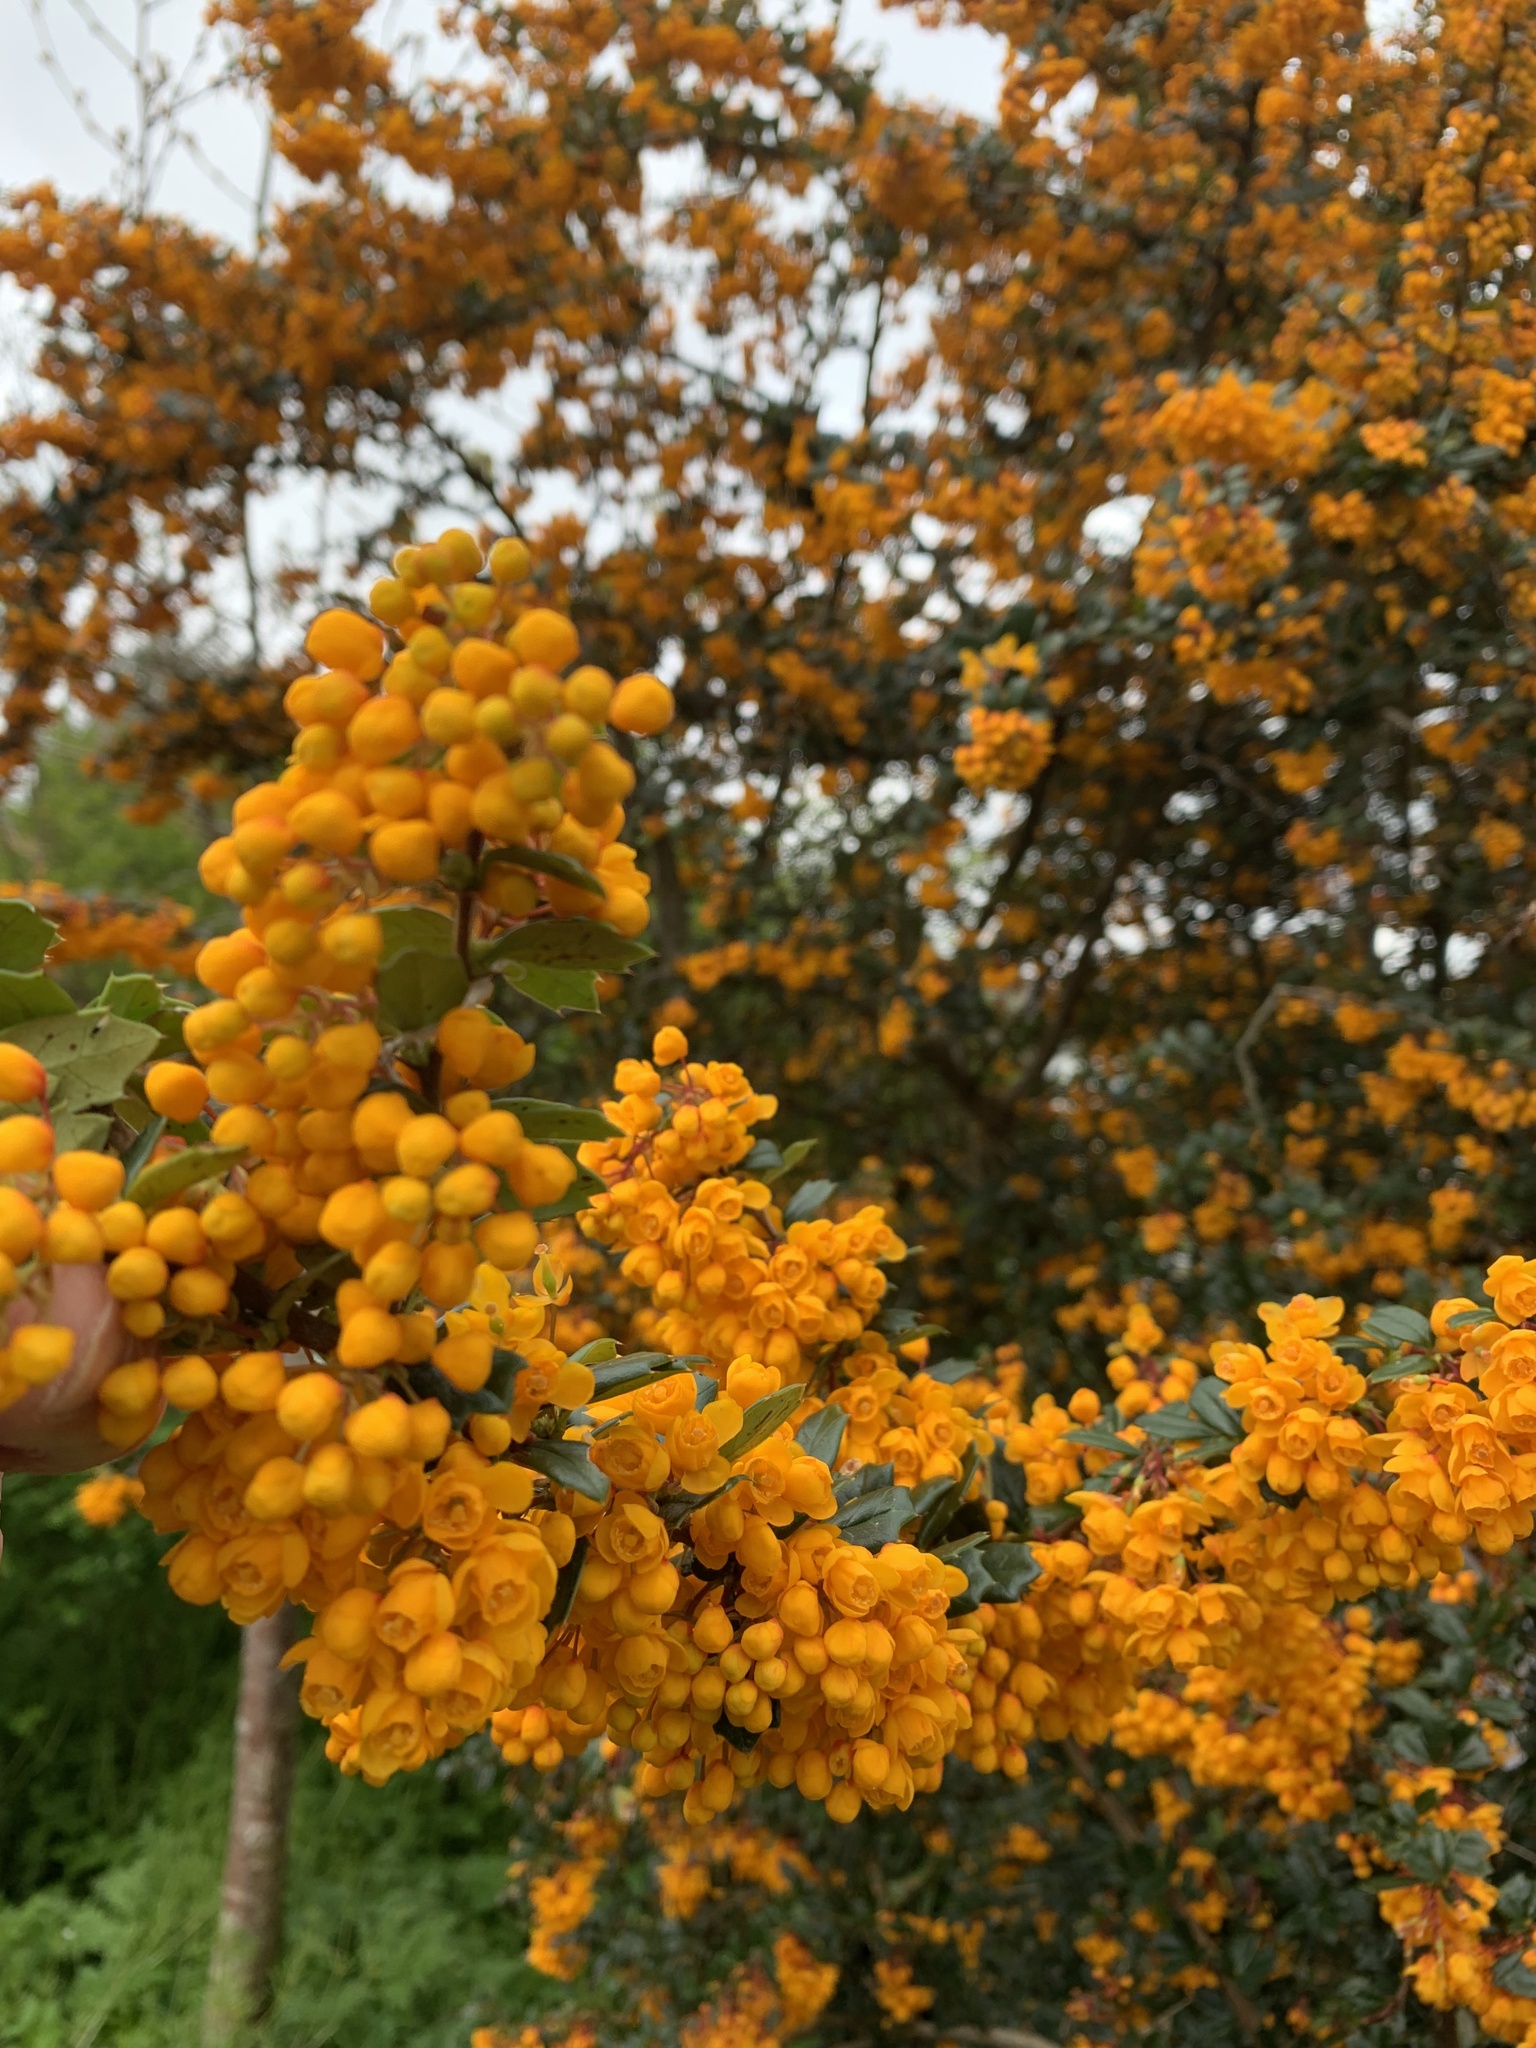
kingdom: Plantae
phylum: Tracheophyta
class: Magnoliopsida
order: Ranunculales
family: Berberidaceae
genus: Berberis
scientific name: Berberis darwinii
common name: Darwin's barberry
